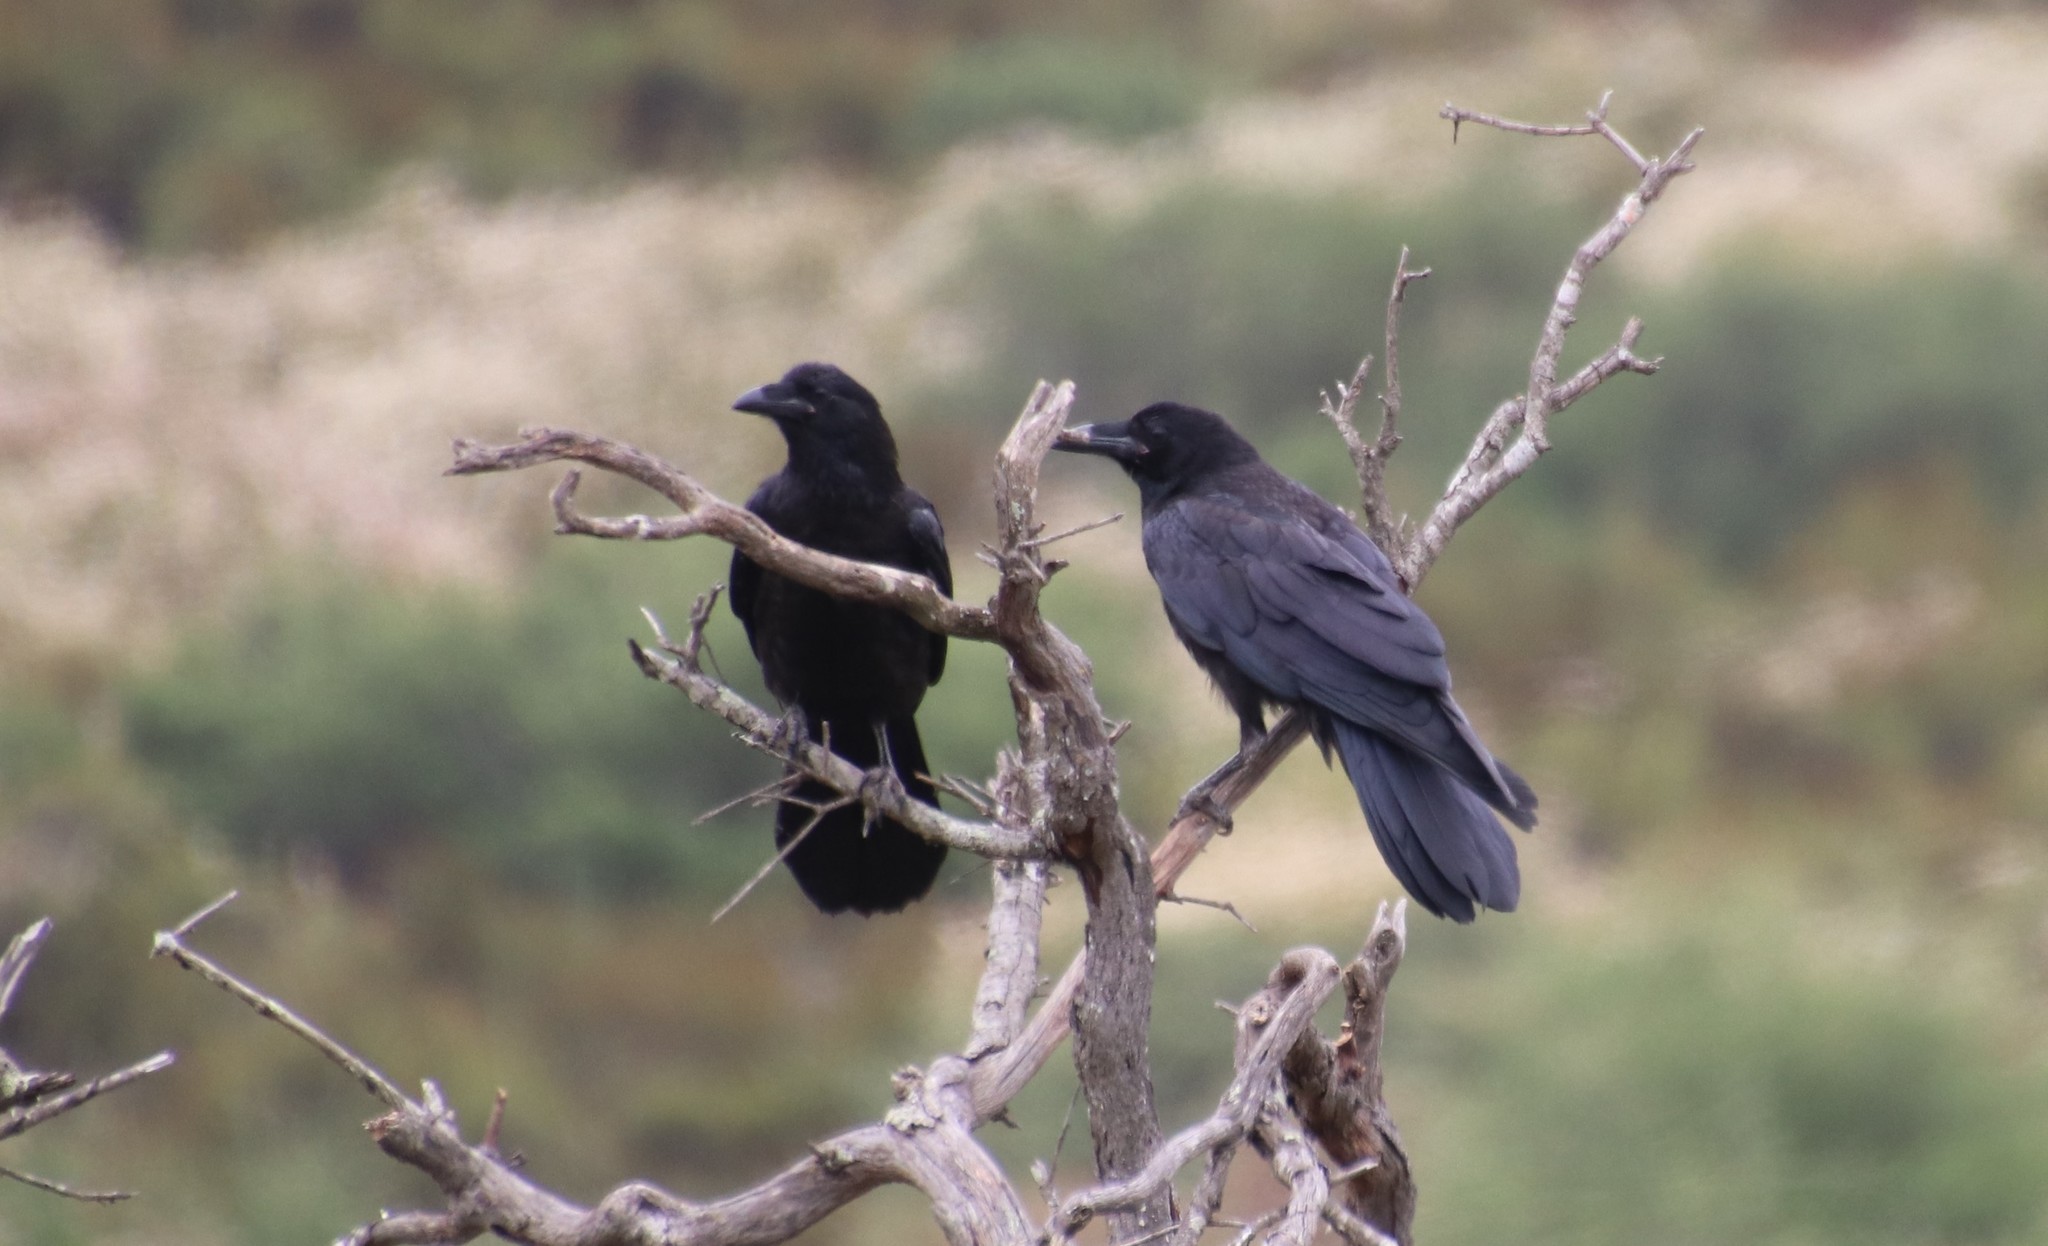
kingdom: Animalia
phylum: Chordata
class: Aves
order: Passeriformes
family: Corvidae
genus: Corvus
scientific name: Corvus corax
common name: Common raven
